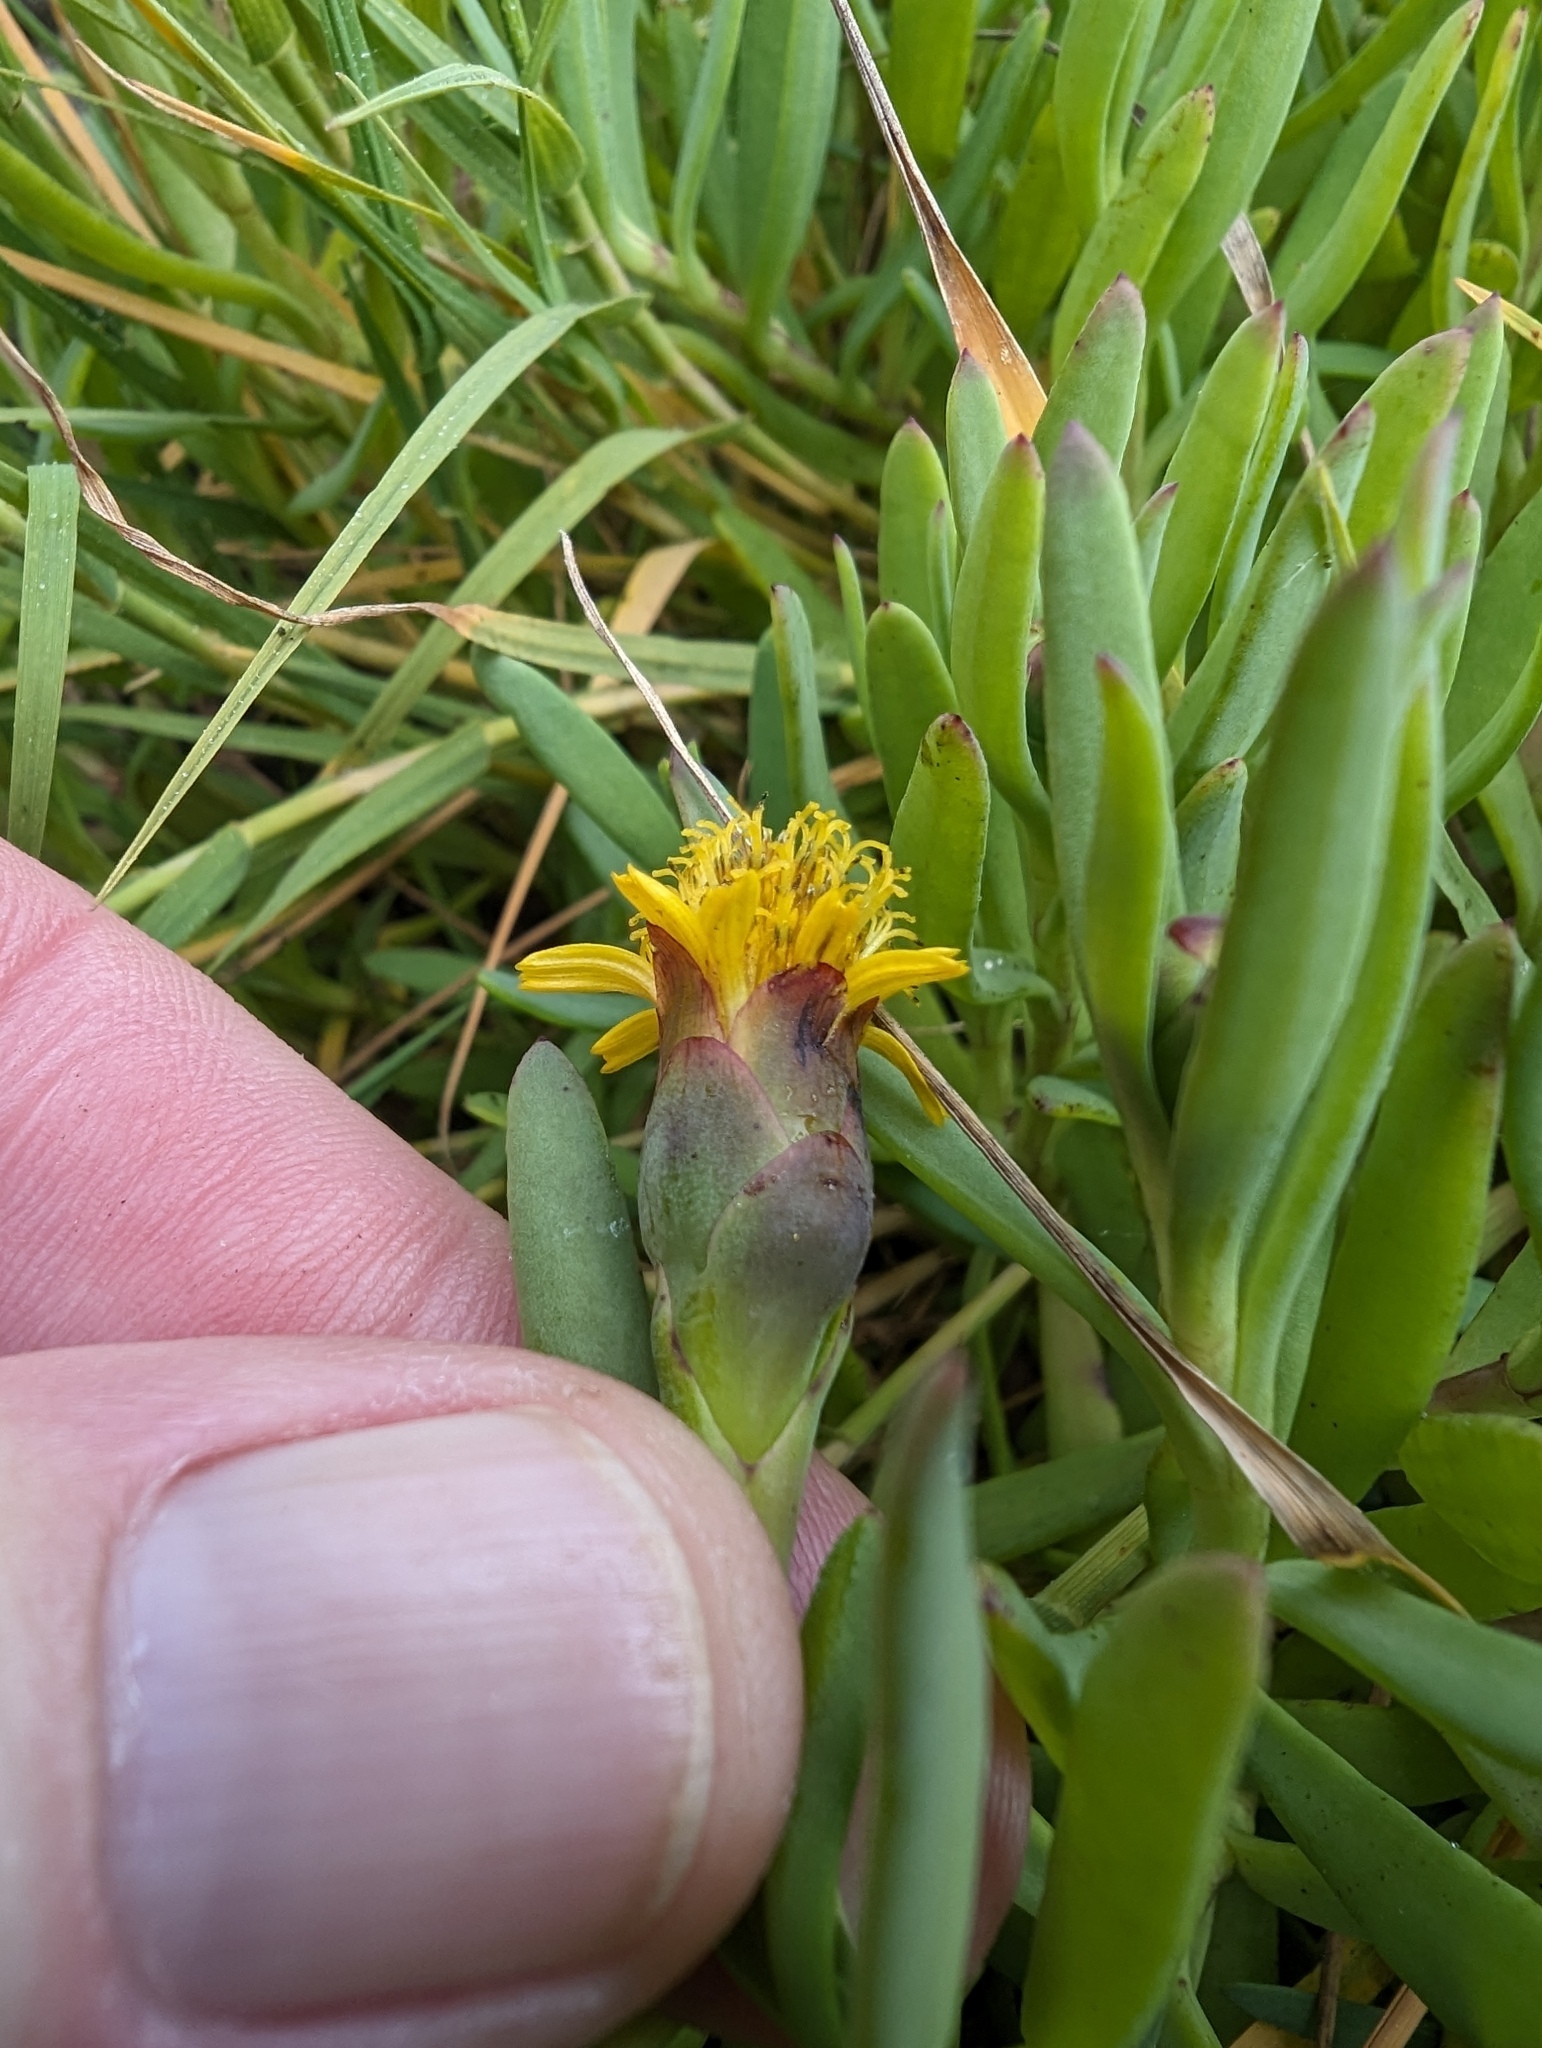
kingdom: Plantae
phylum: Tracheophyta
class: Magnoliopsida
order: Asterales
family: Asteraceae
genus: Jaumea
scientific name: Jaumea carnosa
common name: Fleshy jaumea
